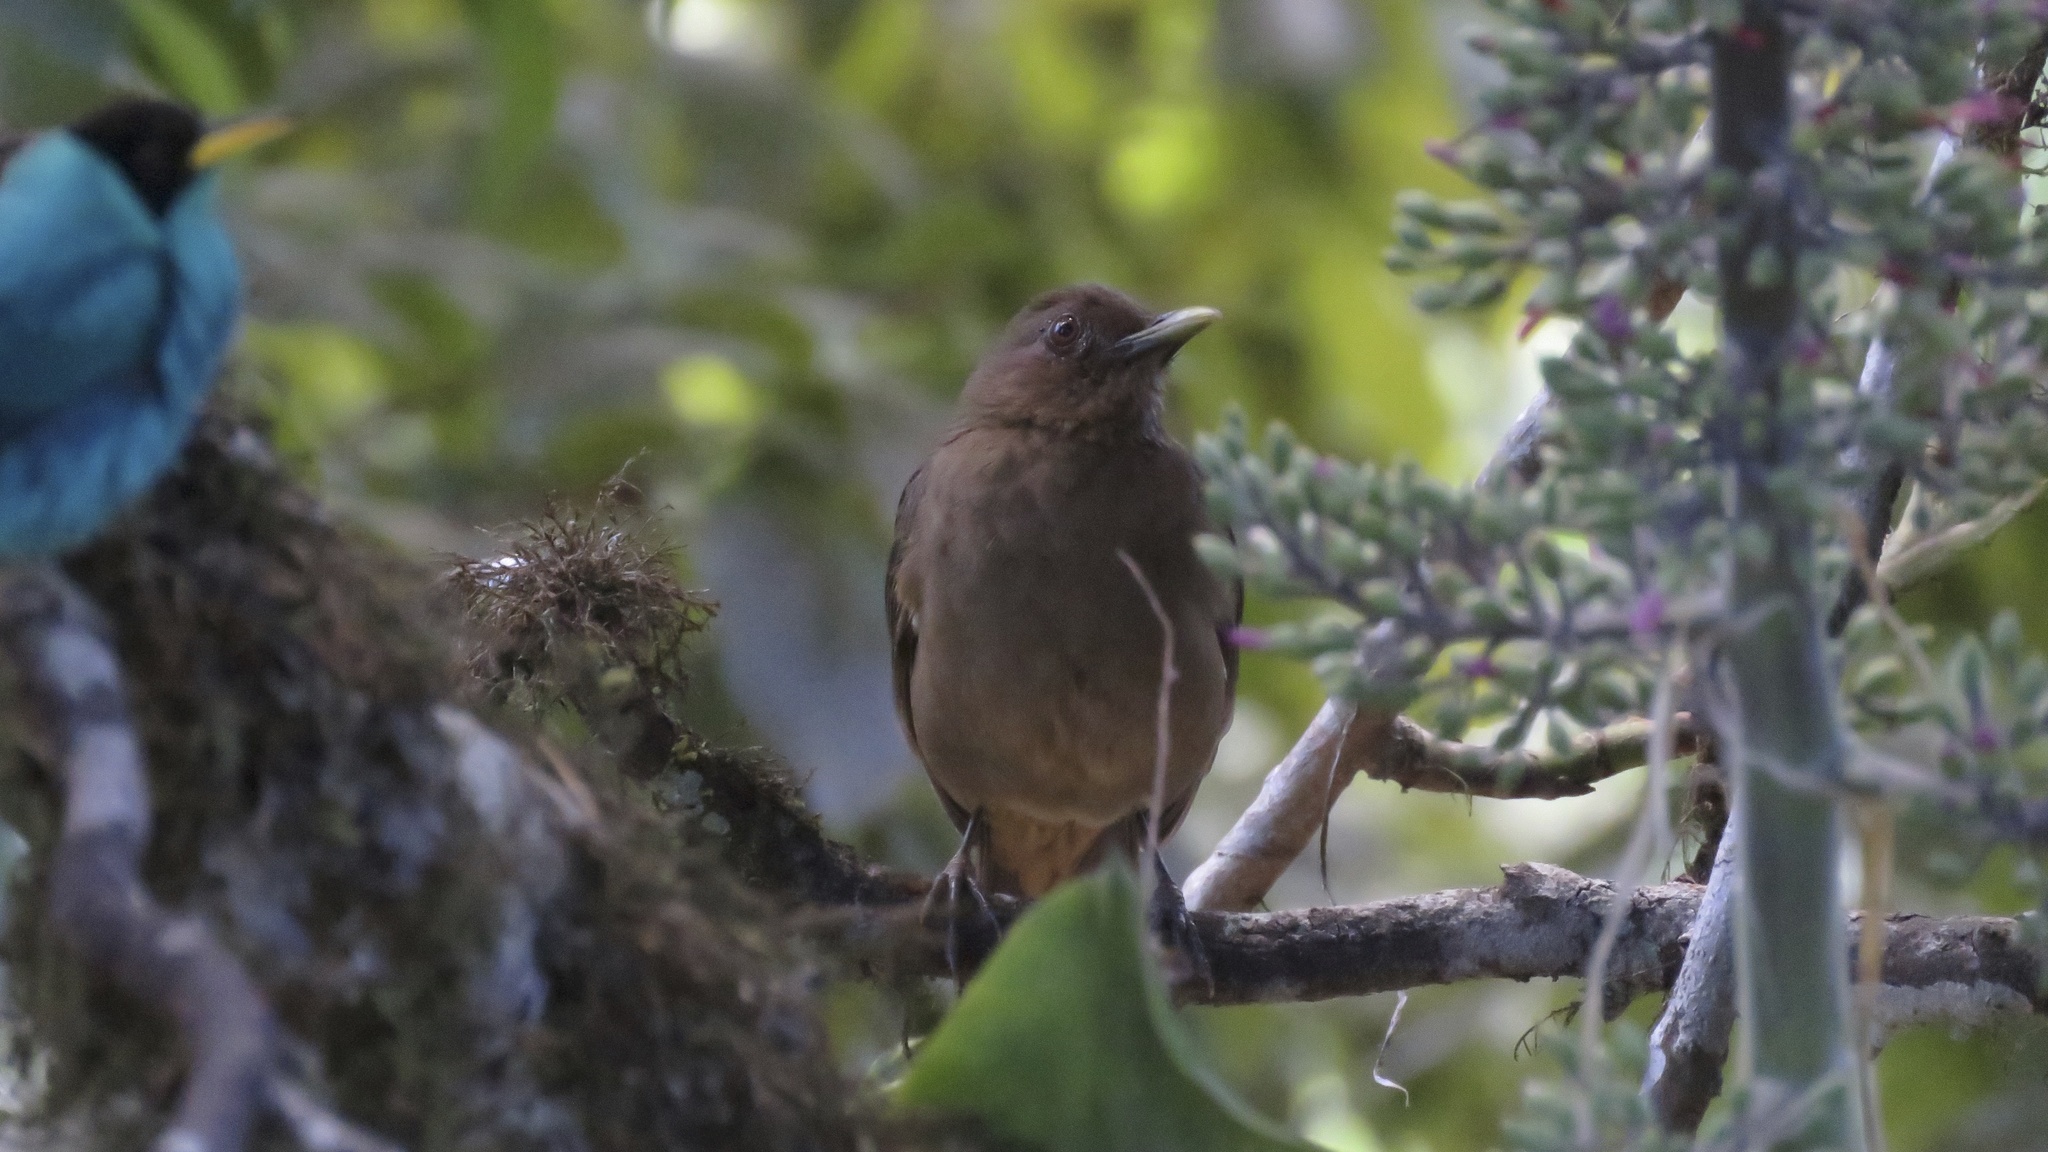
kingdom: Animalia
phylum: Chordata
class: Aves
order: Passeriformes
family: Turdidae
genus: Turdus
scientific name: Turdus grayi
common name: Clay-colored thrush
